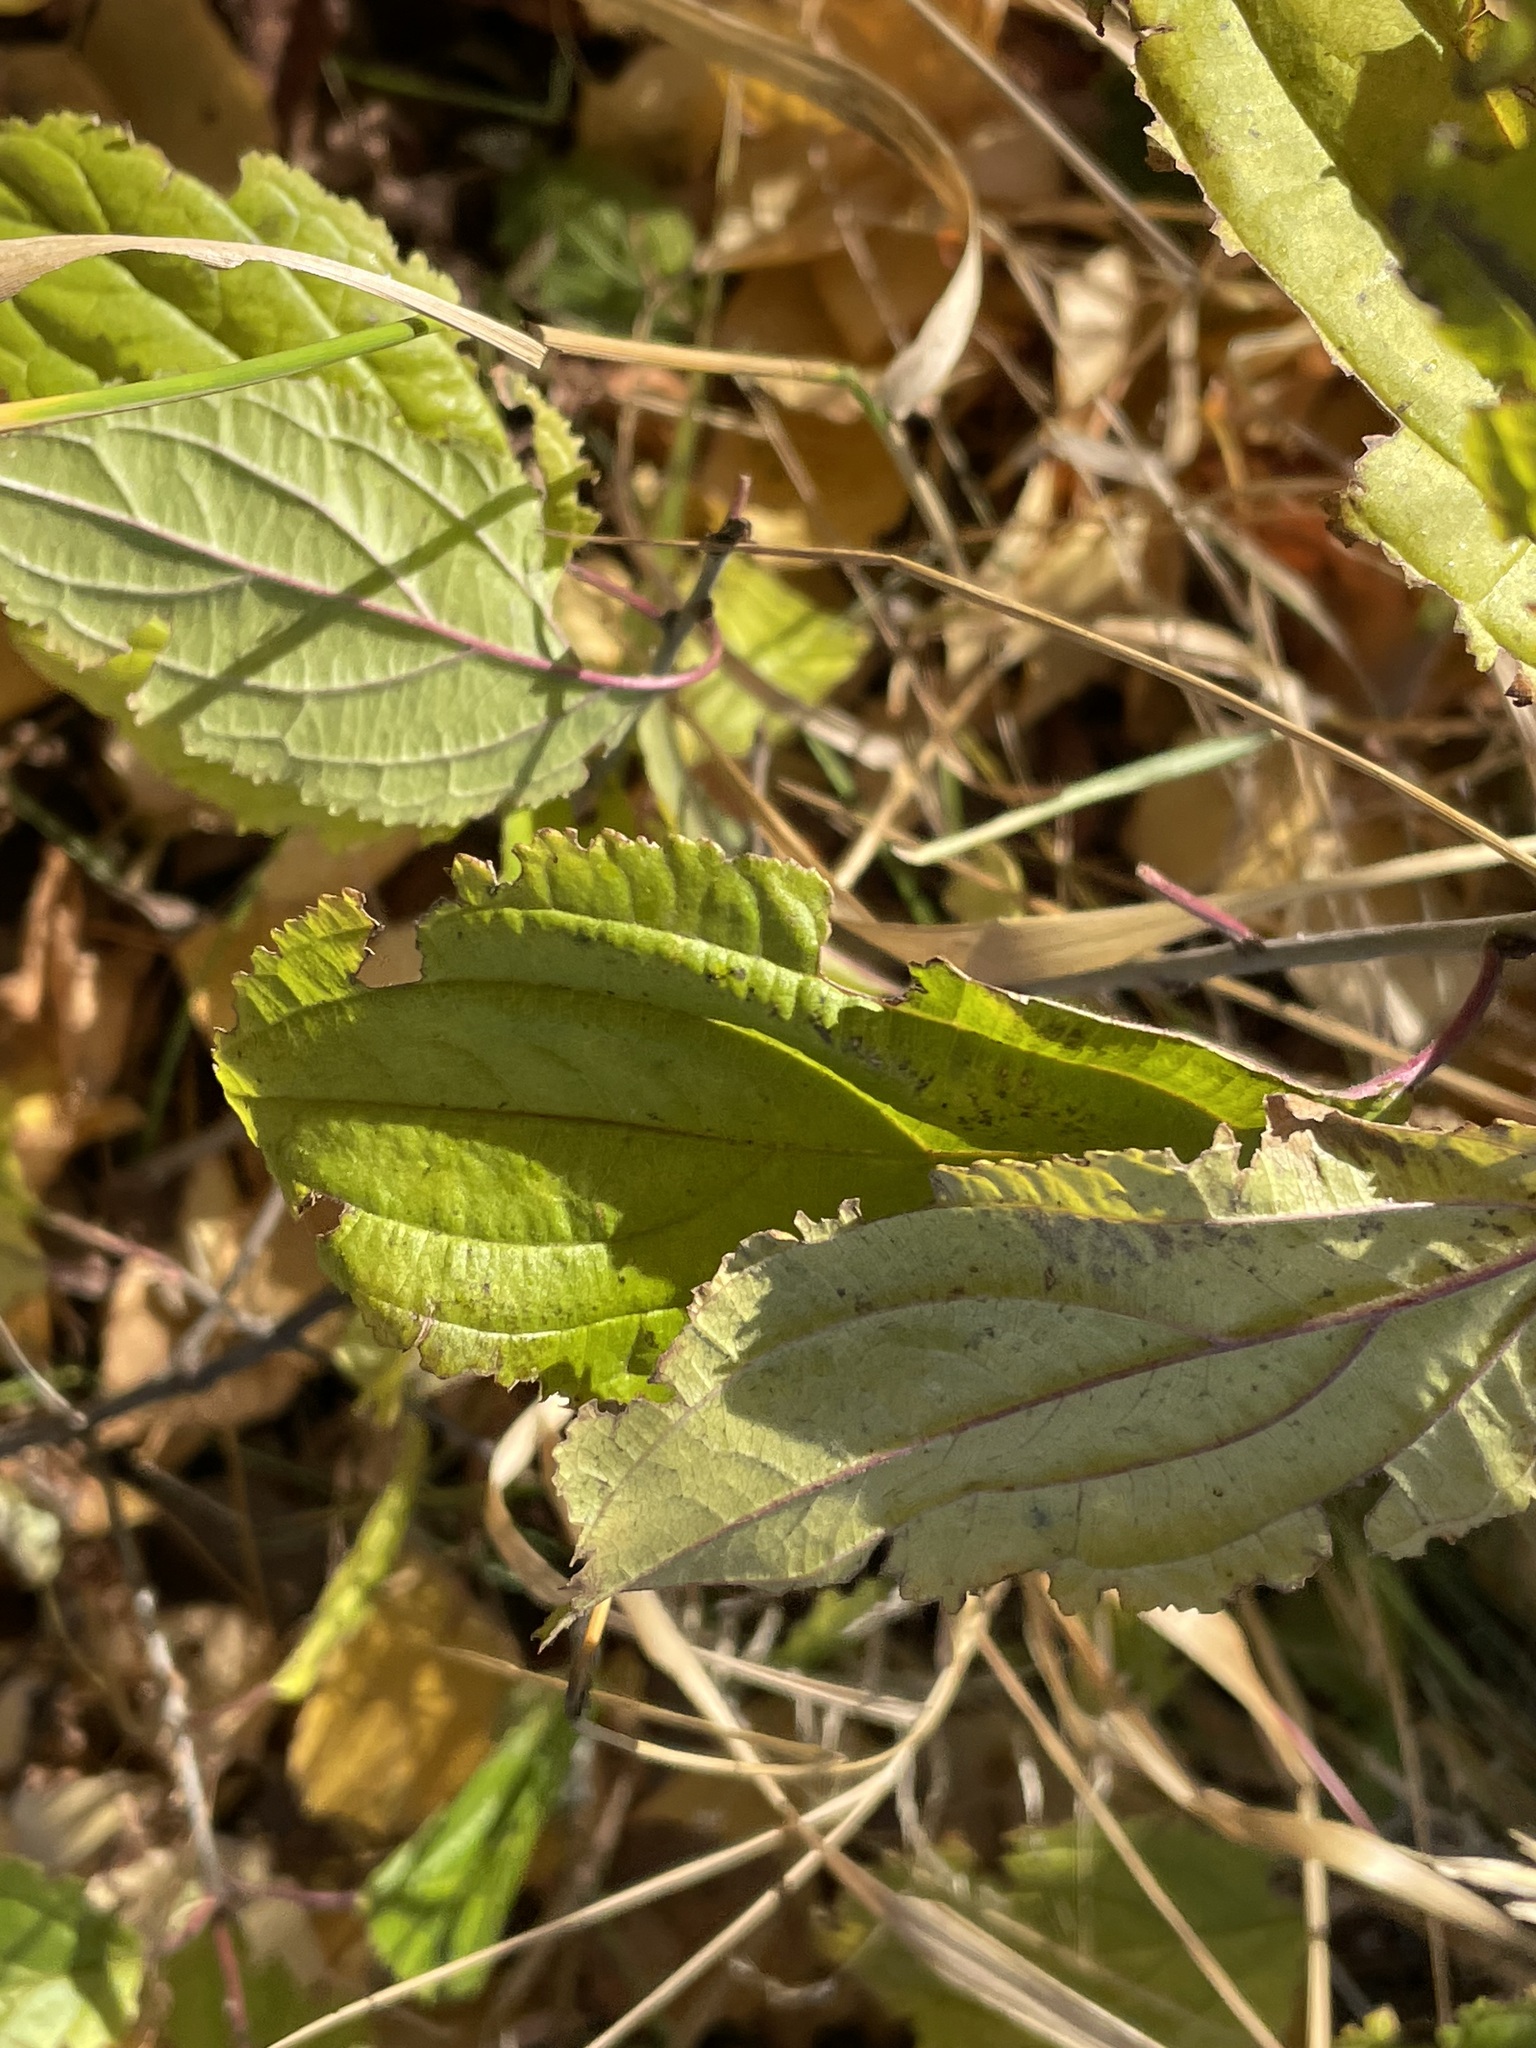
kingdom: Plantae
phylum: Tracheophyta
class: Magnoliopsida
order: Rosales
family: Rhamnaceae
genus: Rhamnus
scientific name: Rhamnus cathartica
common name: Common buckthorn
